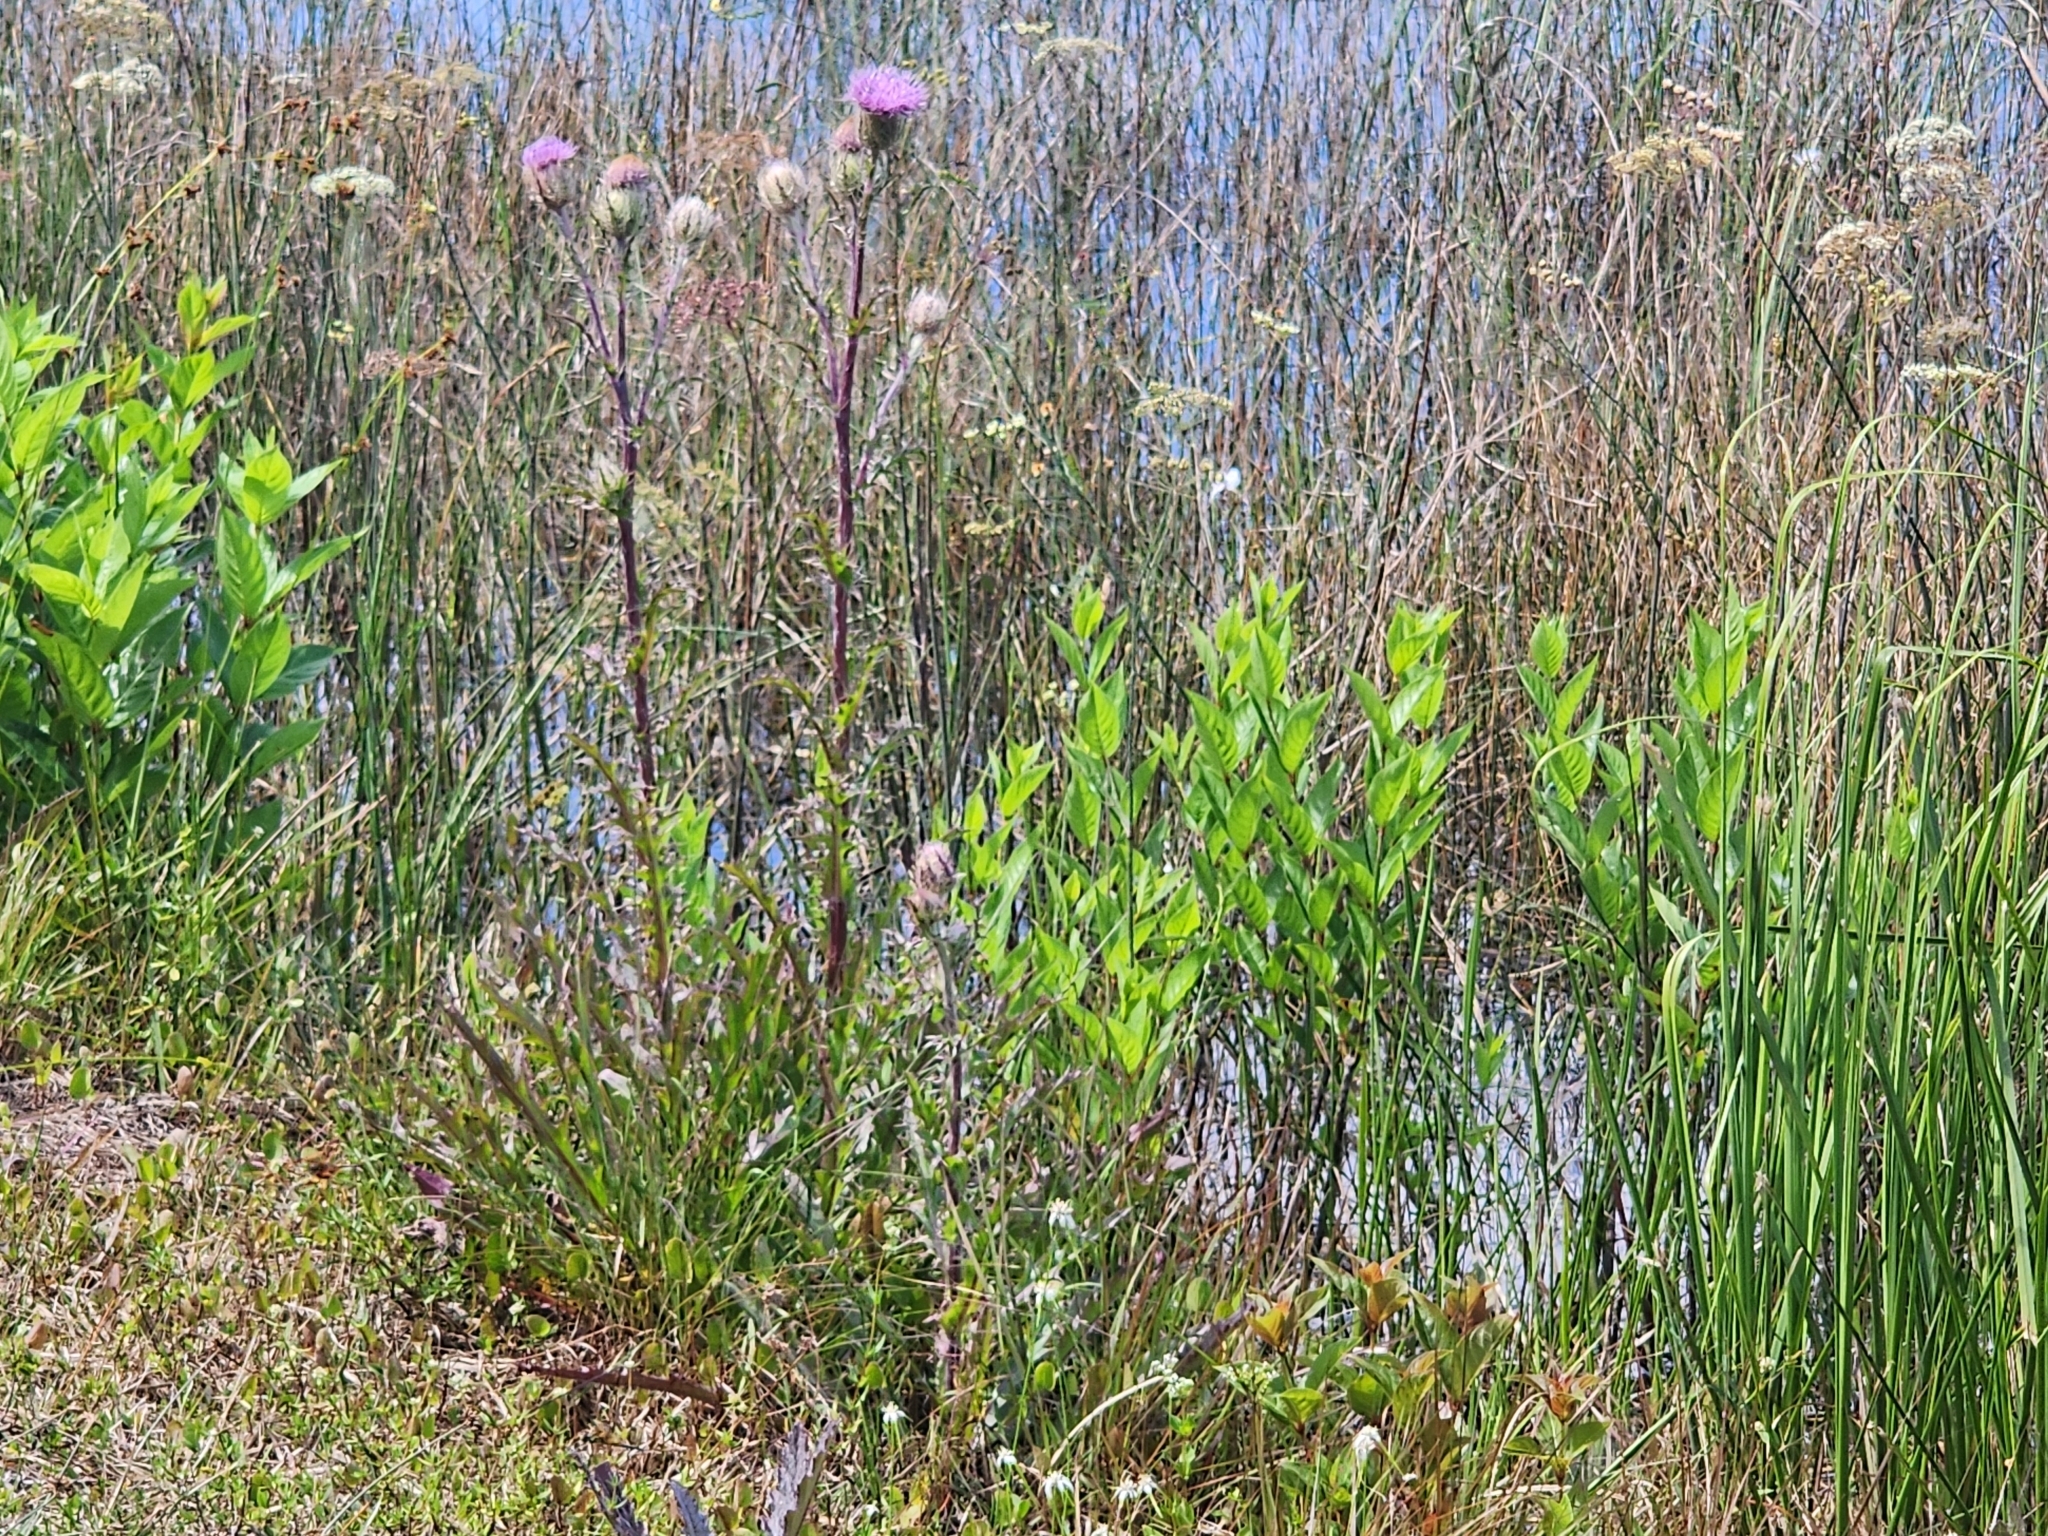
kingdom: Plantae
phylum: Tracheophyta
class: Magnoliopsida
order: Asterales
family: Asteraceae
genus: Cirsium
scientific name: Cirsium horridulum
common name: Bristly thistle
